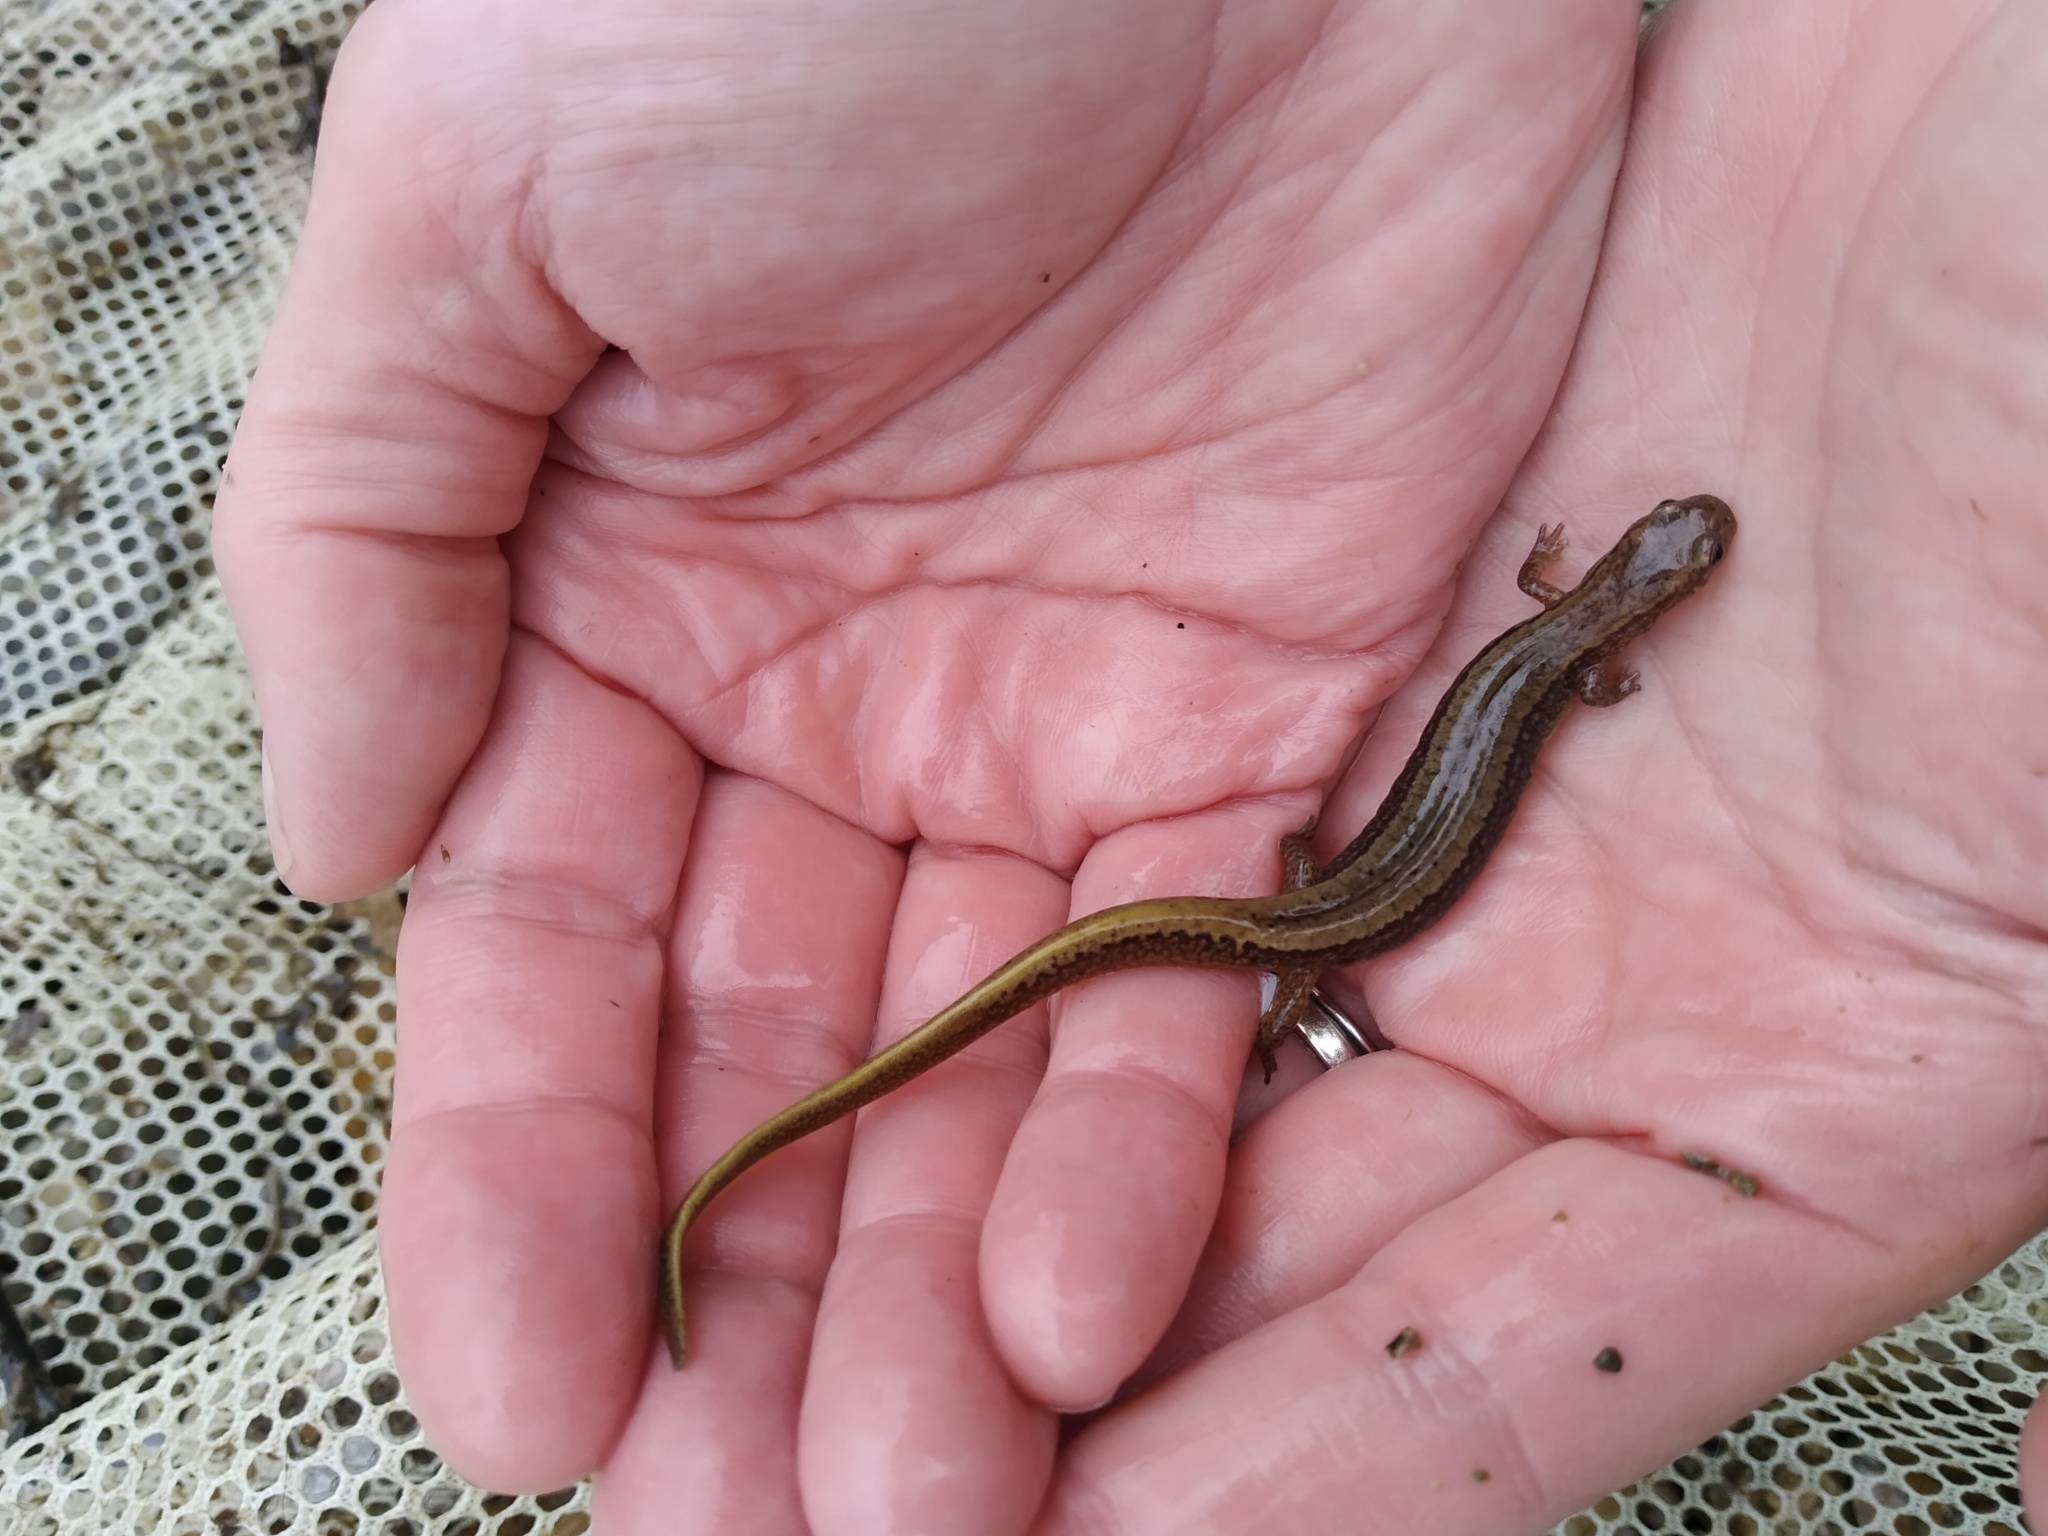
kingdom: Animalia
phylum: Chordata
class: Amphibia
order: Caudata
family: Plethodontidae
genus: Eurycea
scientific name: Eurycea bislineata
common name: Northern two-lined salamander
